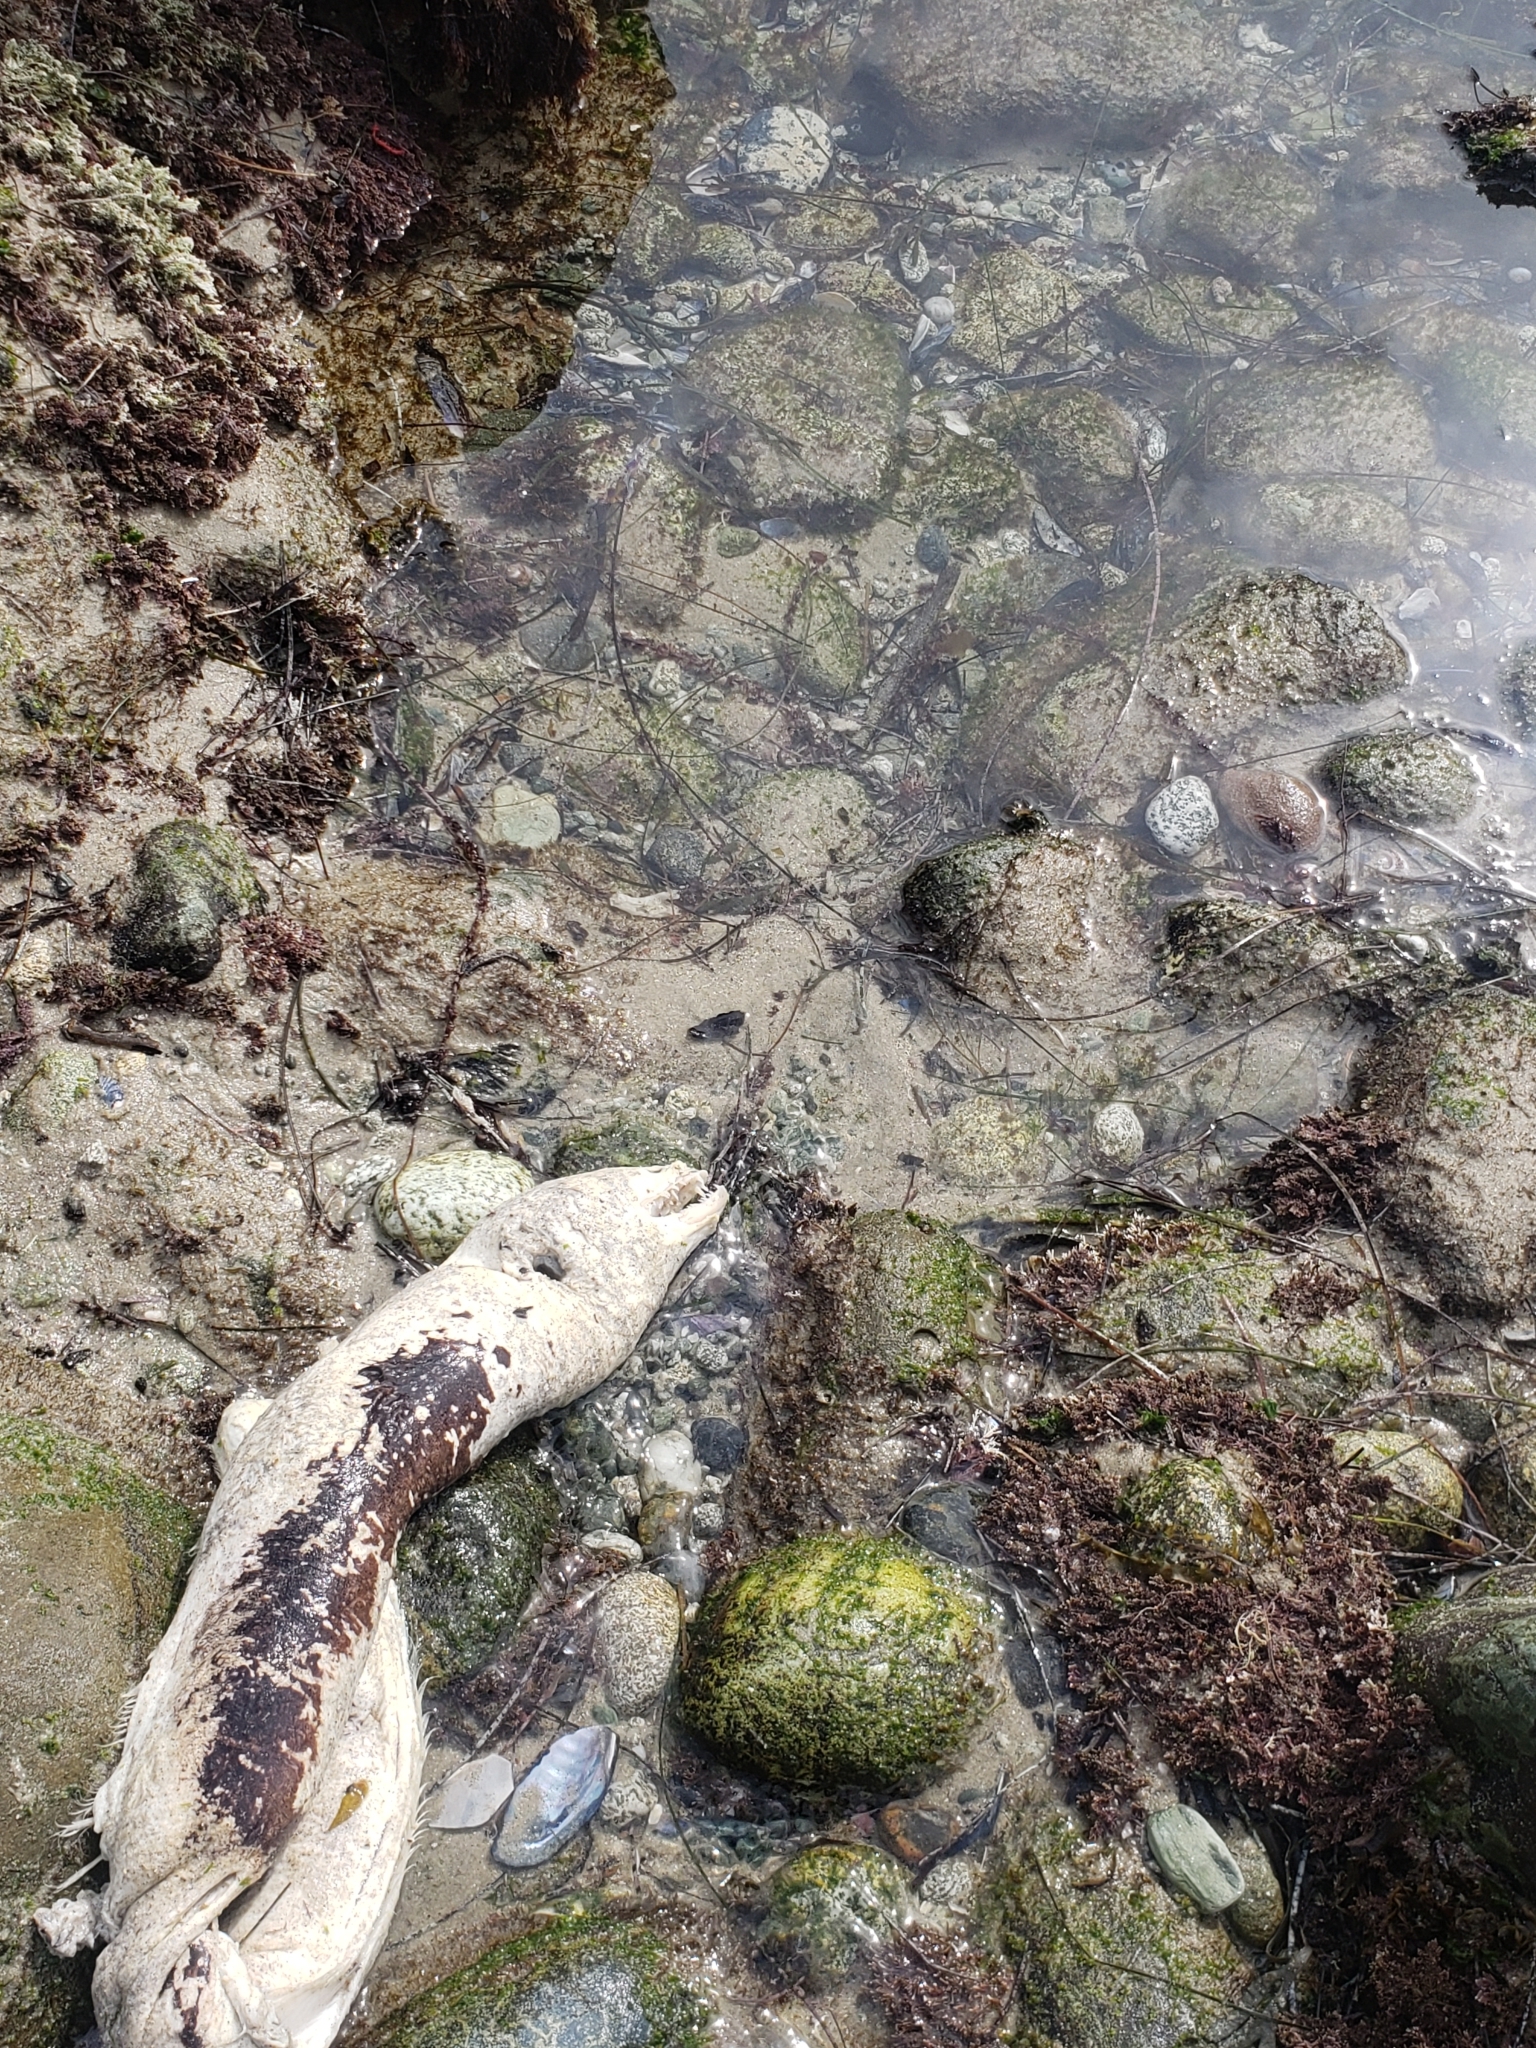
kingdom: Animalia
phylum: Chordata
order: Anguilliformes
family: Muraenidae
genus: Gymnothorax
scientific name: Gymnothorax mordax
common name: California moray
